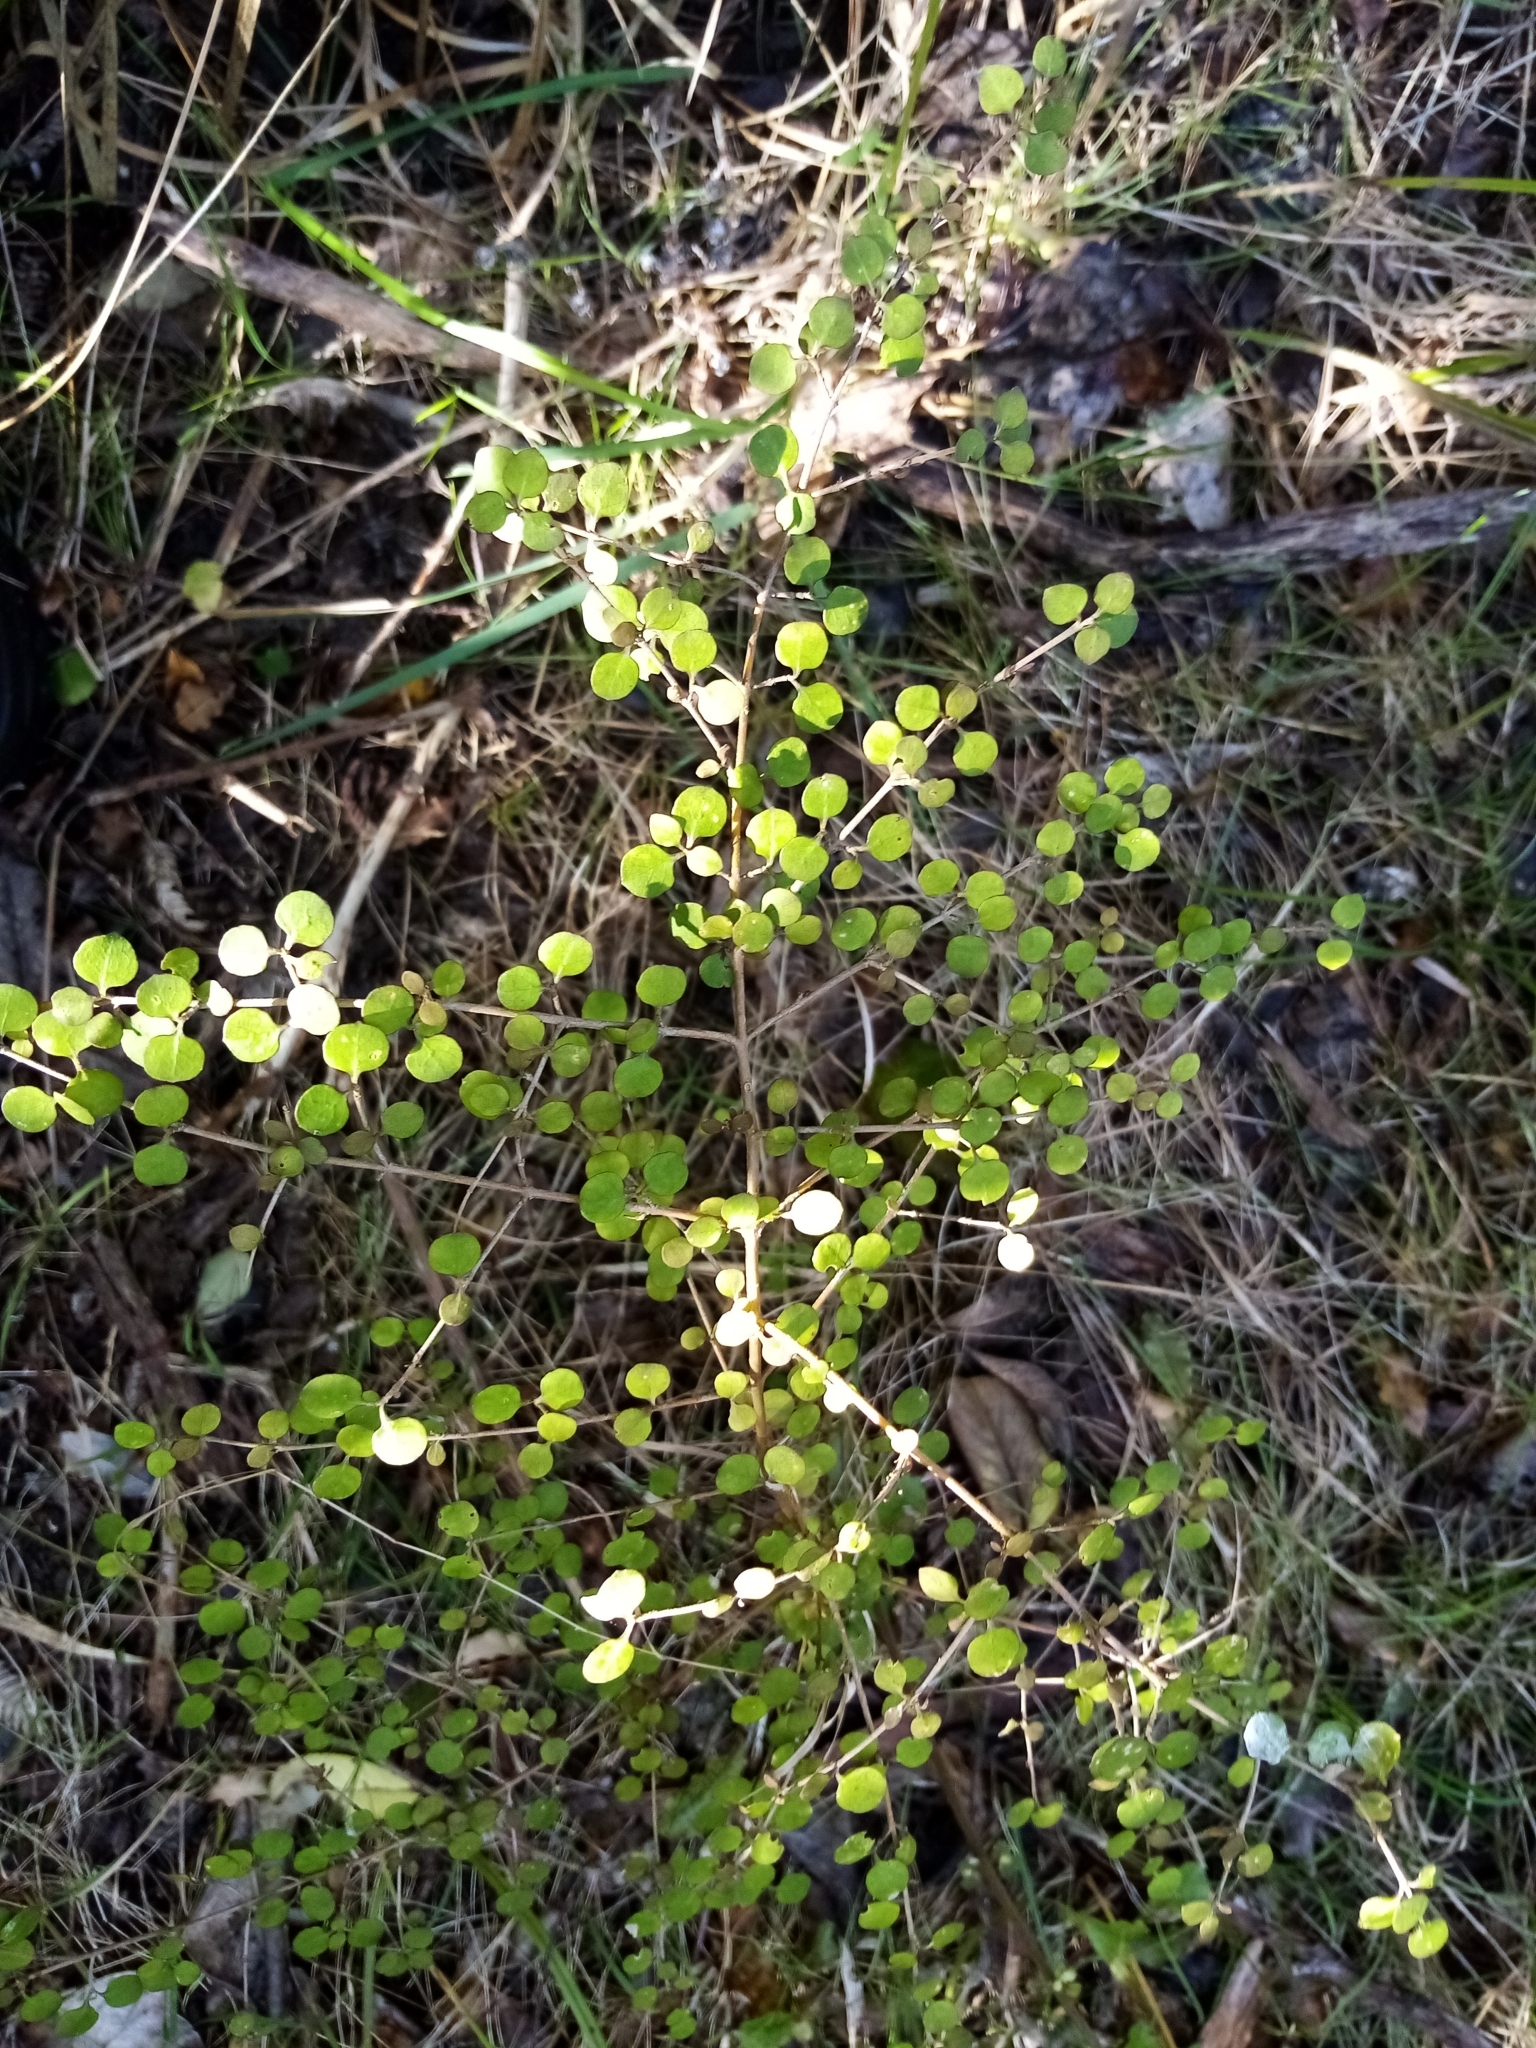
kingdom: Plantae
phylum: Tracheophyta
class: Magnoliopsida
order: Gentianales
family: Rubiaceae
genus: Coprosma
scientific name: Coprosma rhamnoides
